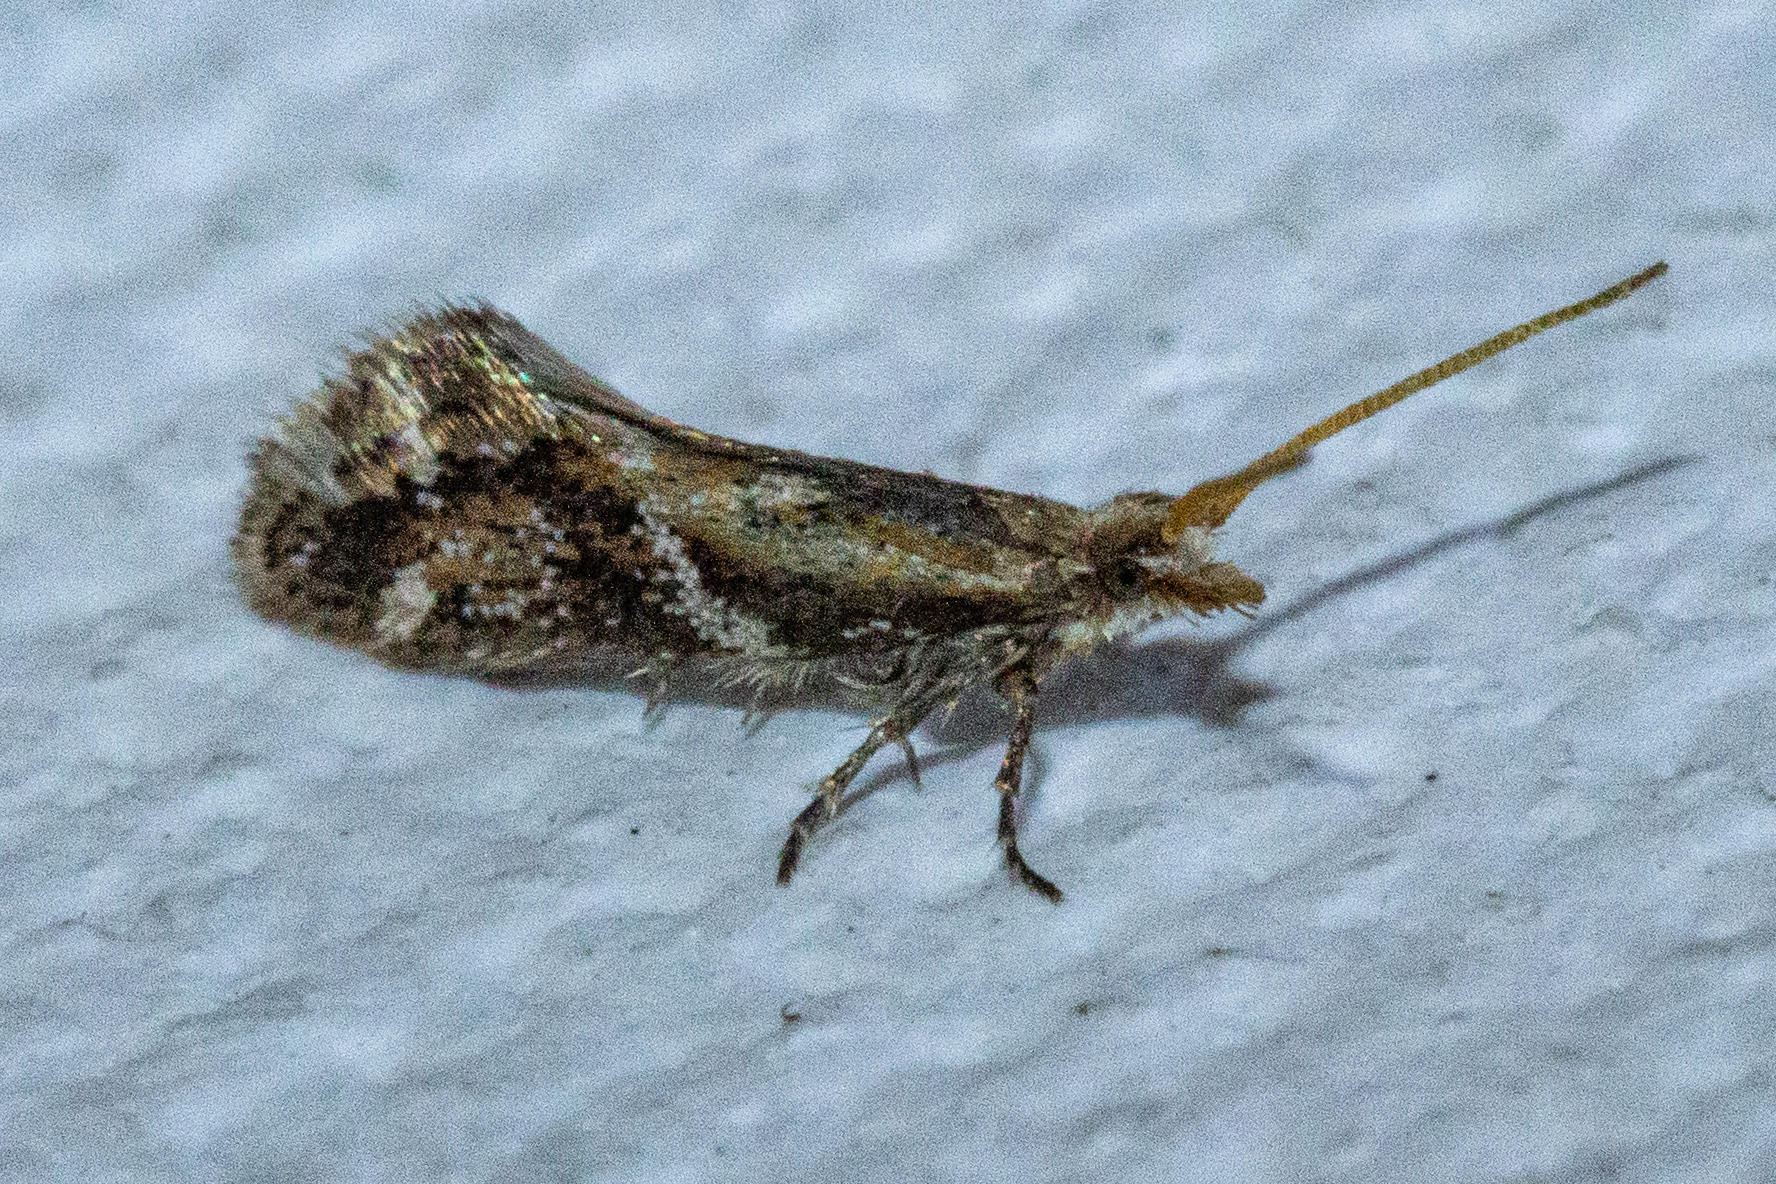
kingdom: Animalia
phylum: Arthropoda
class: Insecta
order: Lepidoptera
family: Mnesarchaeidae
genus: Mnesarchaea
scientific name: Mnesarchaea paracosma
